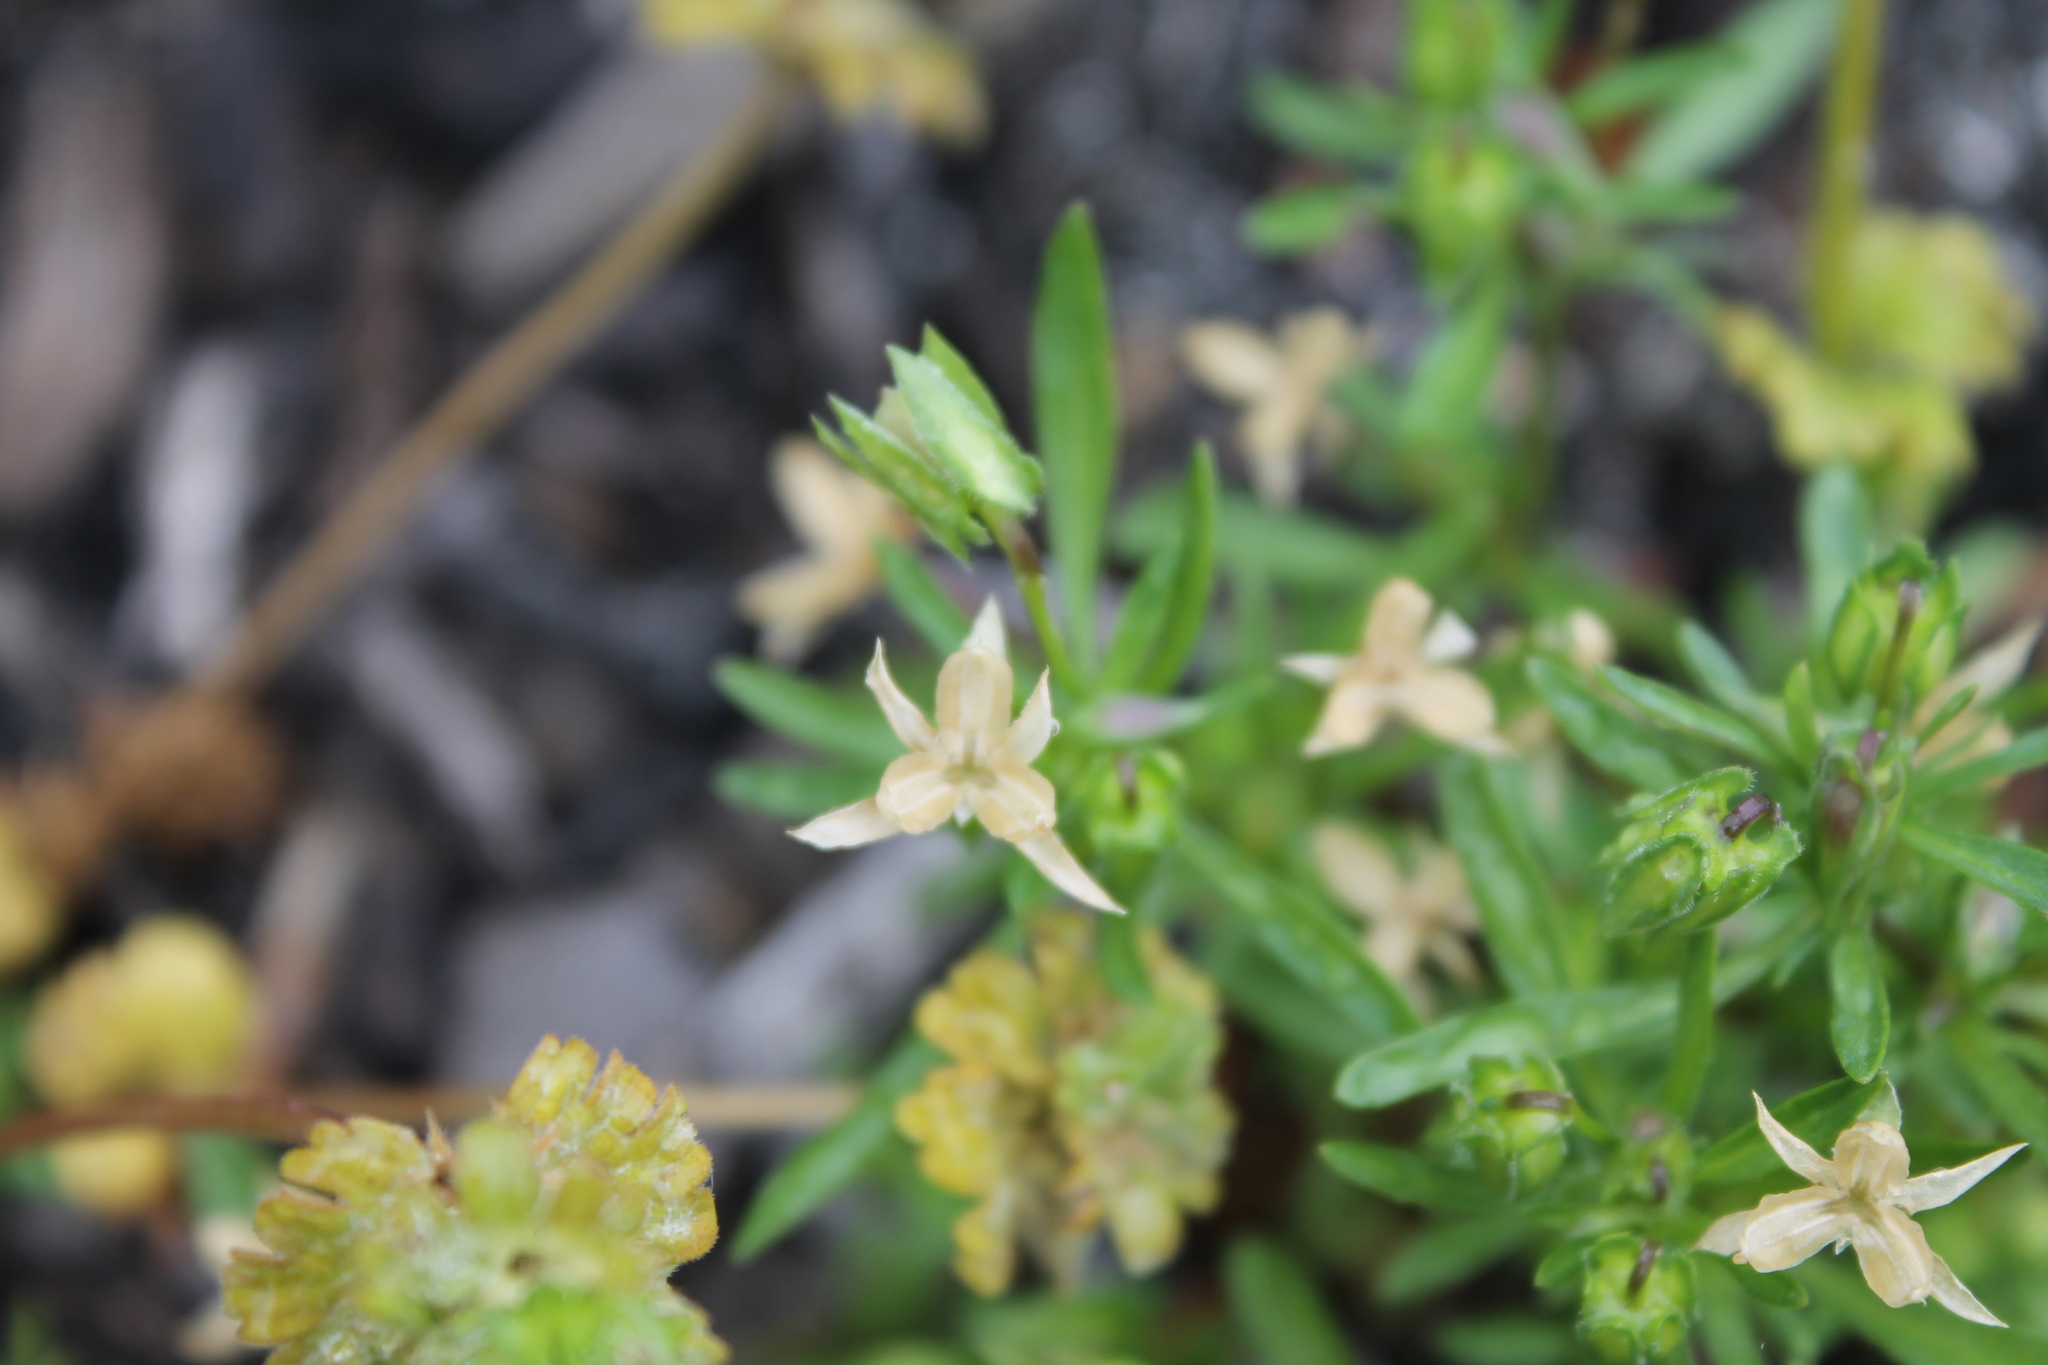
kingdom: Plantae
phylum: Tracheophyta
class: Magnoliopsida
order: Malpighiales
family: Violaceae
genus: Viola
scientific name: Viola rafinesquei
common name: American field pansy
